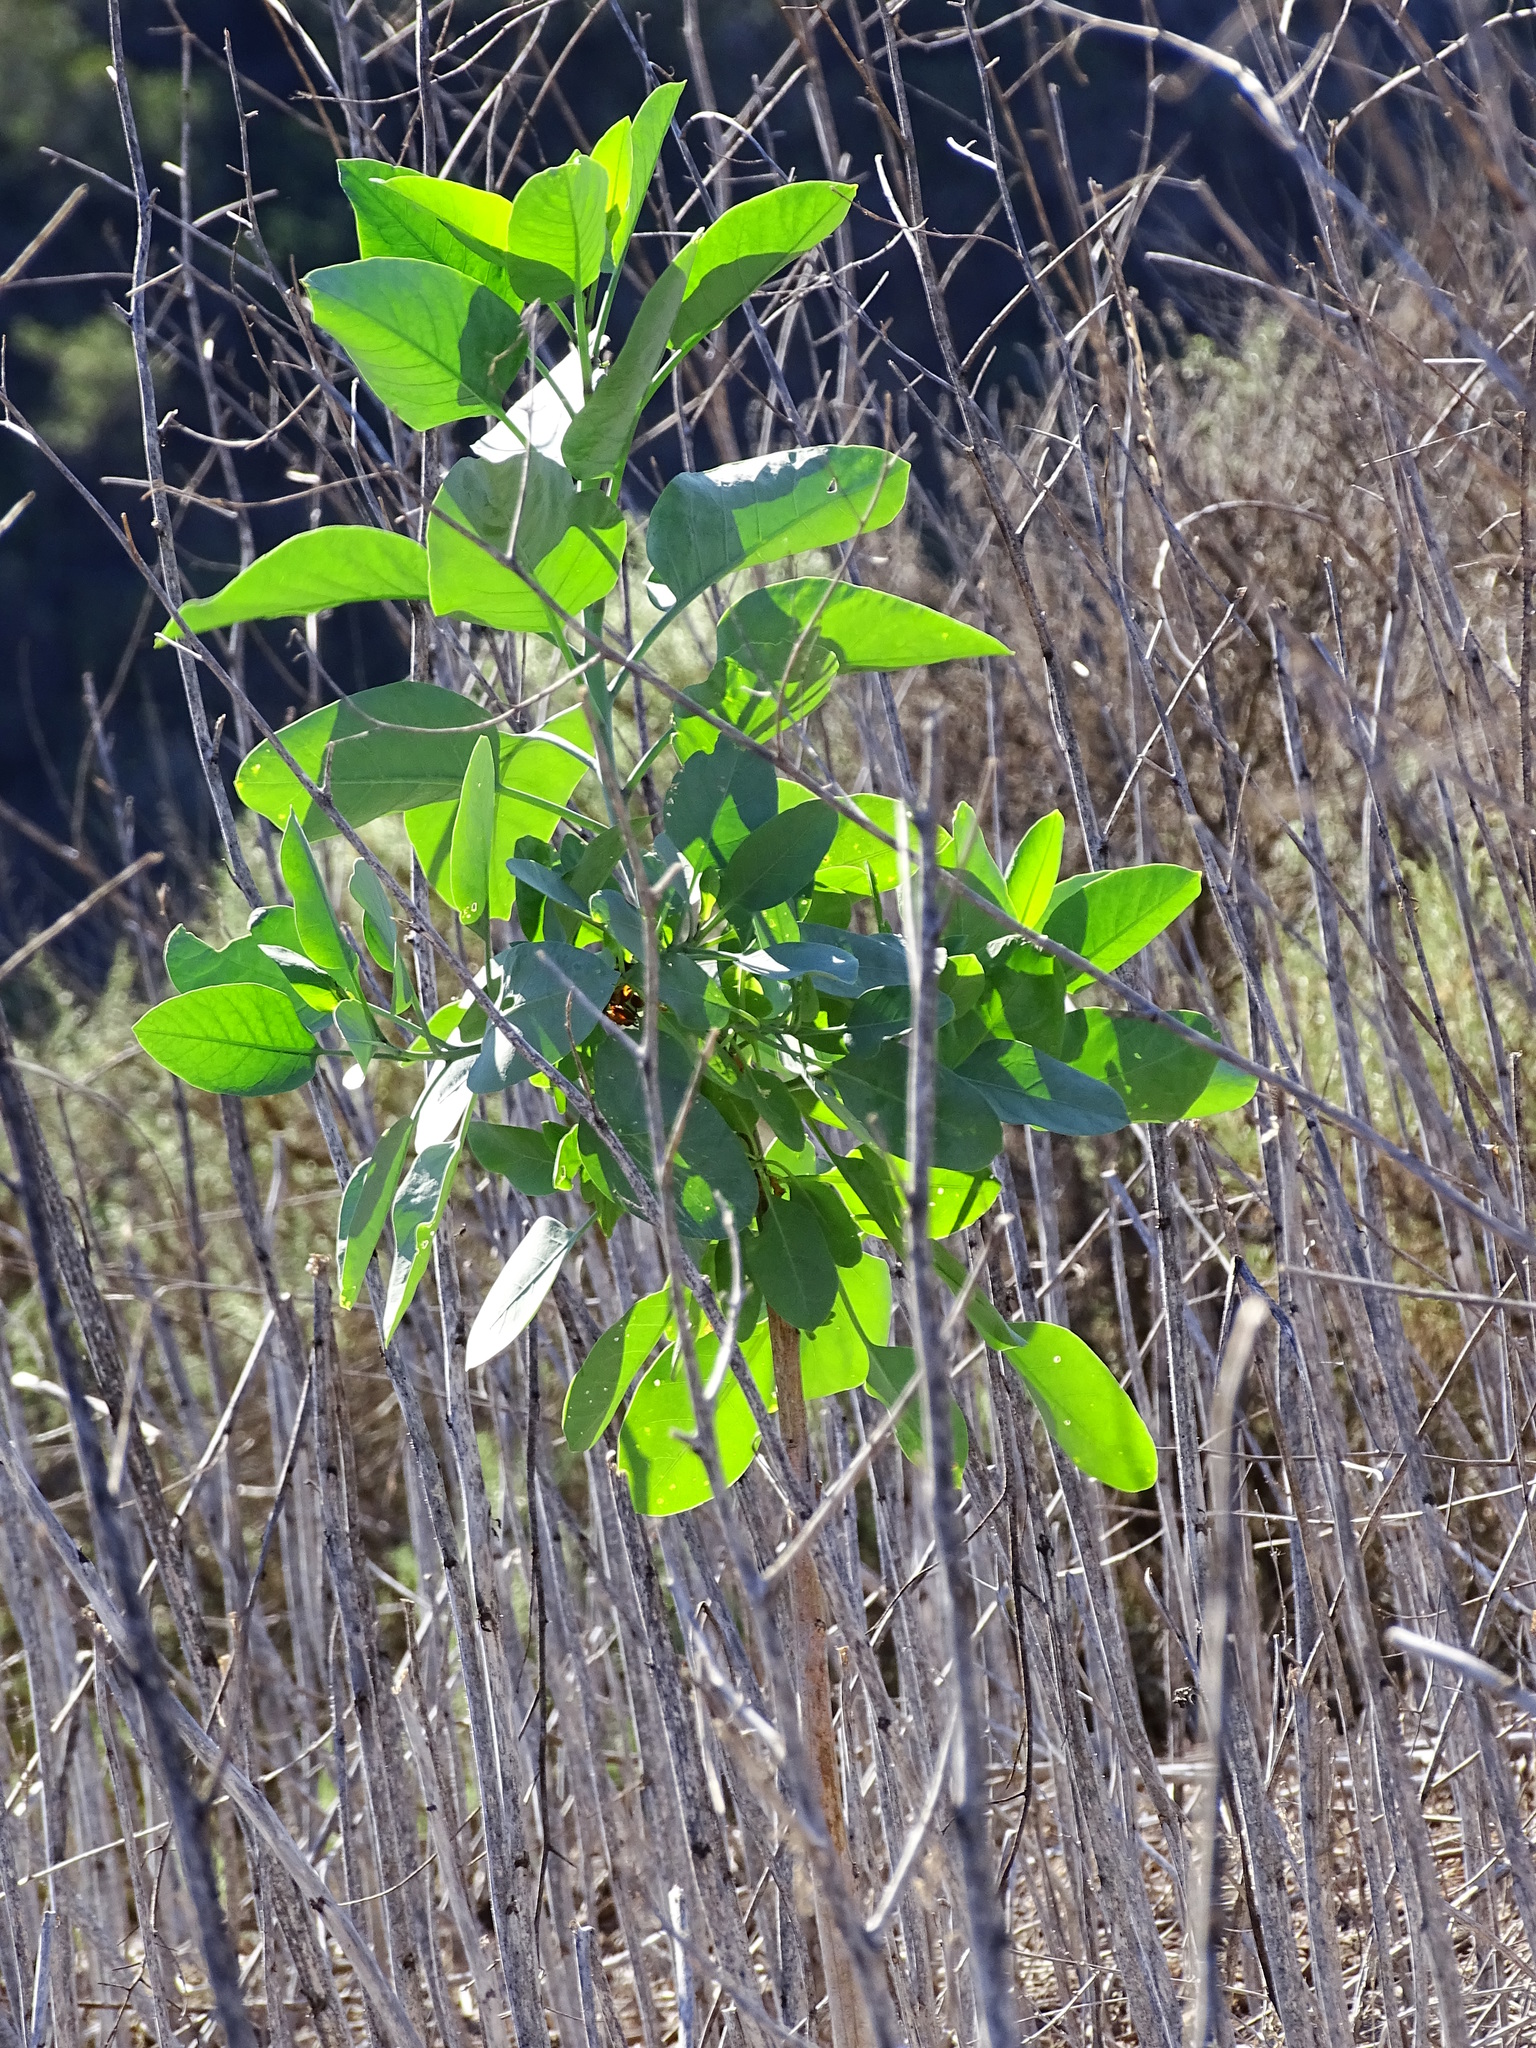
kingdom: Plantae
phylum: Tracheophyta
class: Magnoliopsida
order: Solanales
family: Solanaceae
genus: Nicotiana
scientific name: Nicotiana glauca
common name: Tree tobacco
